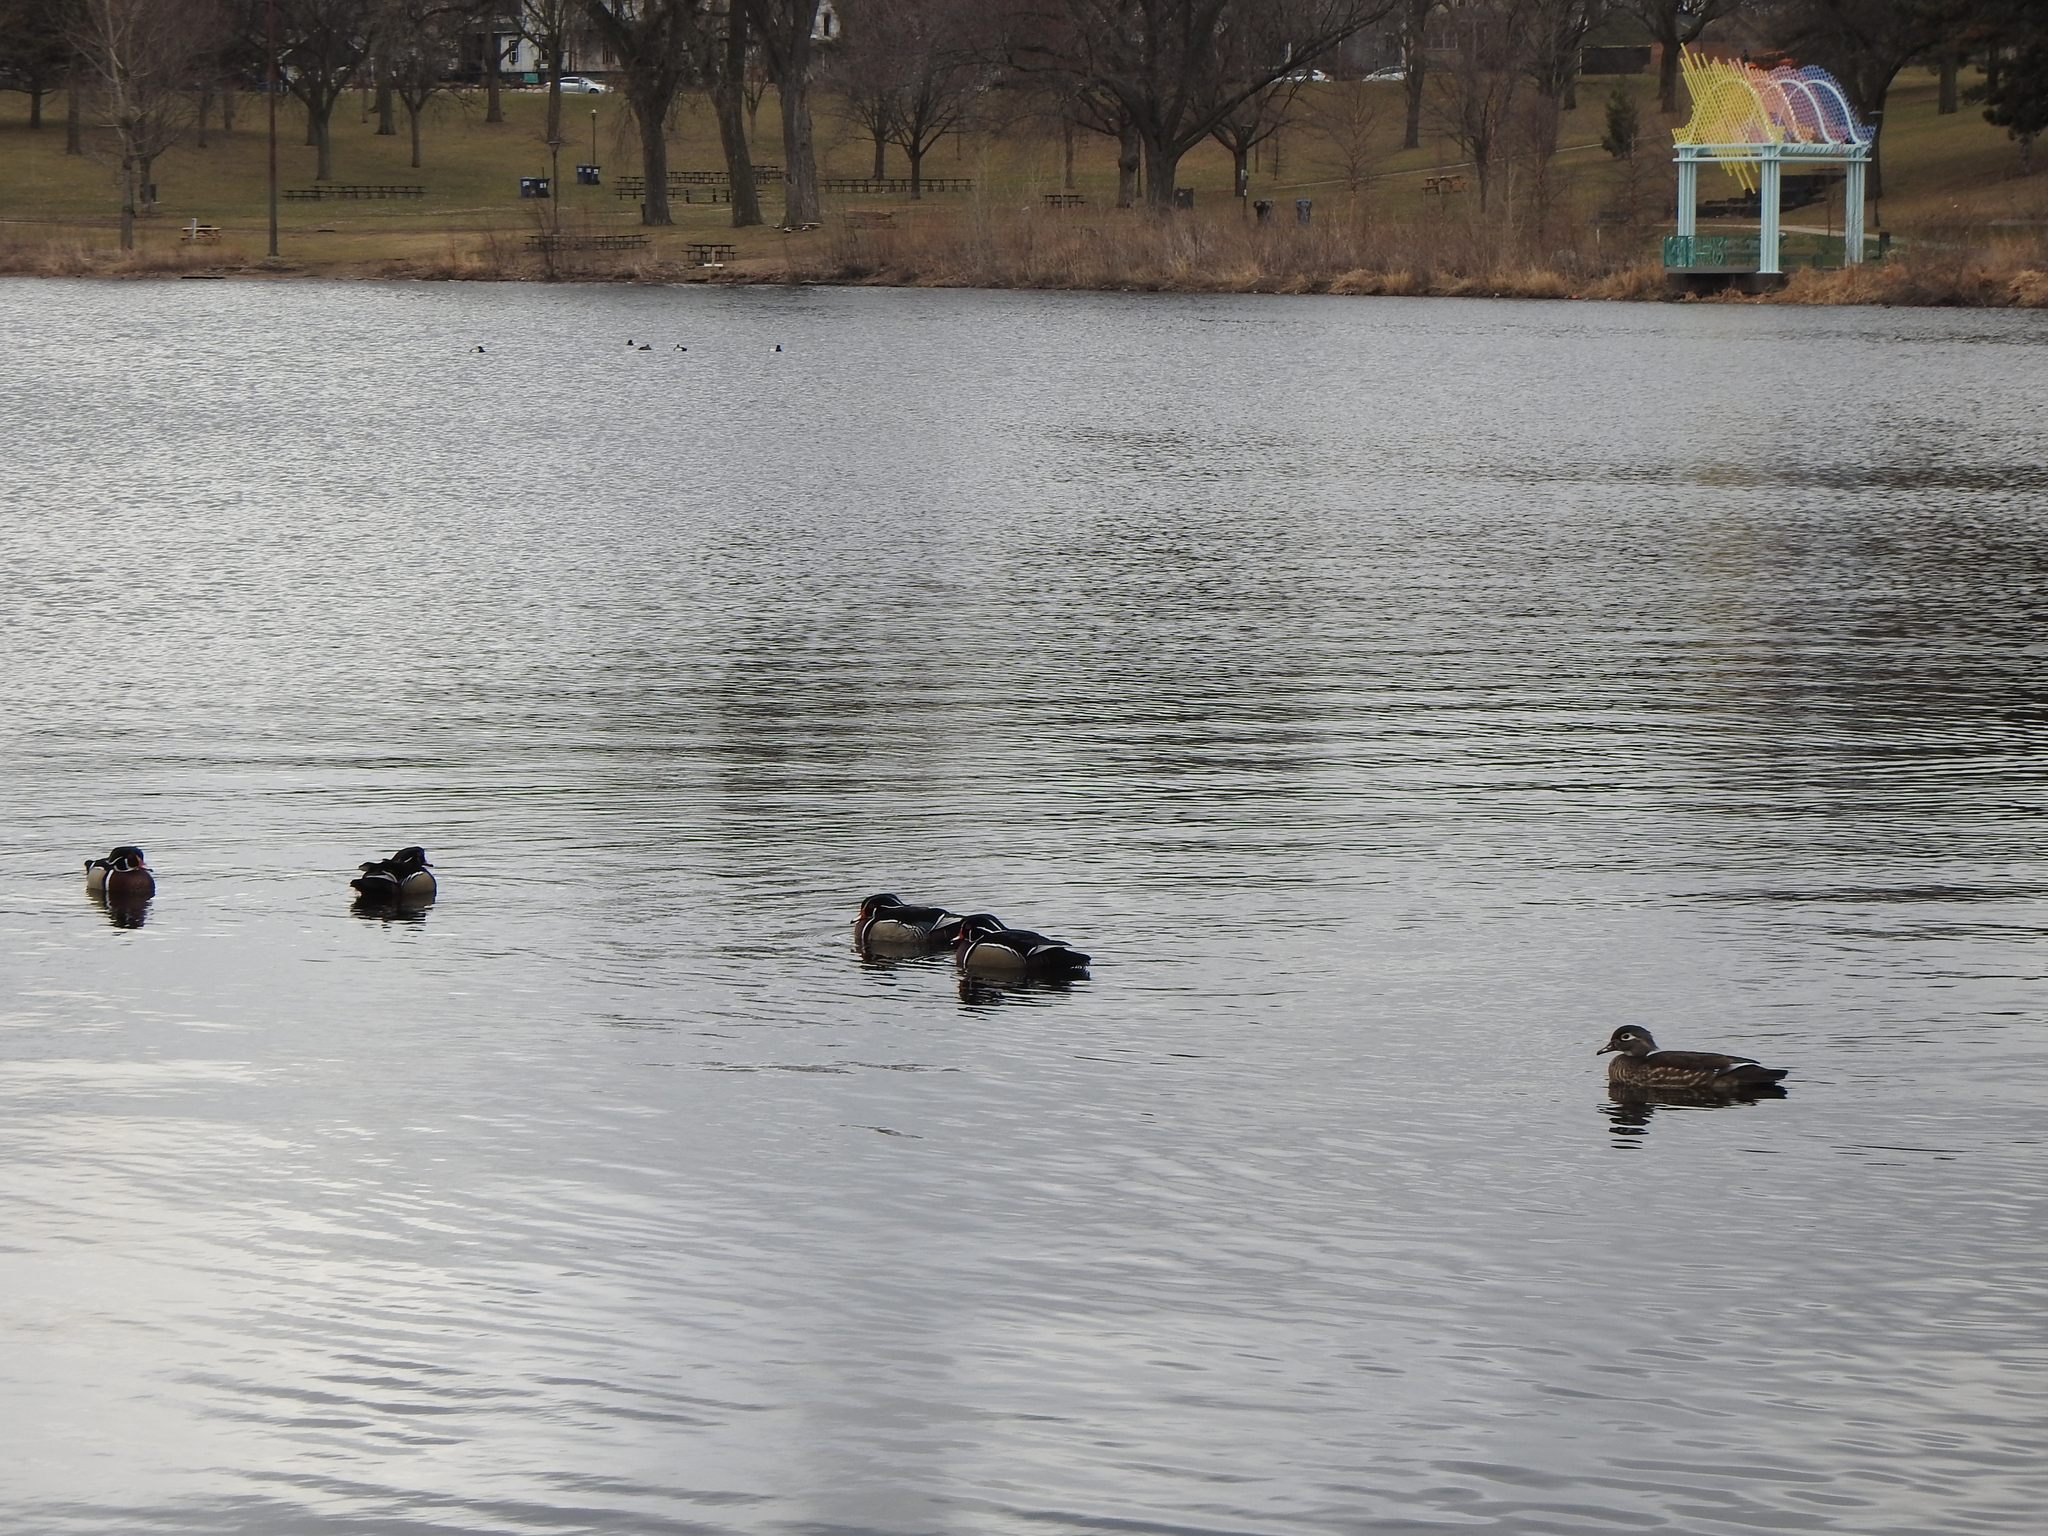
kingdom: Animalia
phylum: Chordata
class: Aves
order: Anseriformes
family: Anatidae
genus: Aix
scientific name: Aix sponsa
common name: Wood duck
